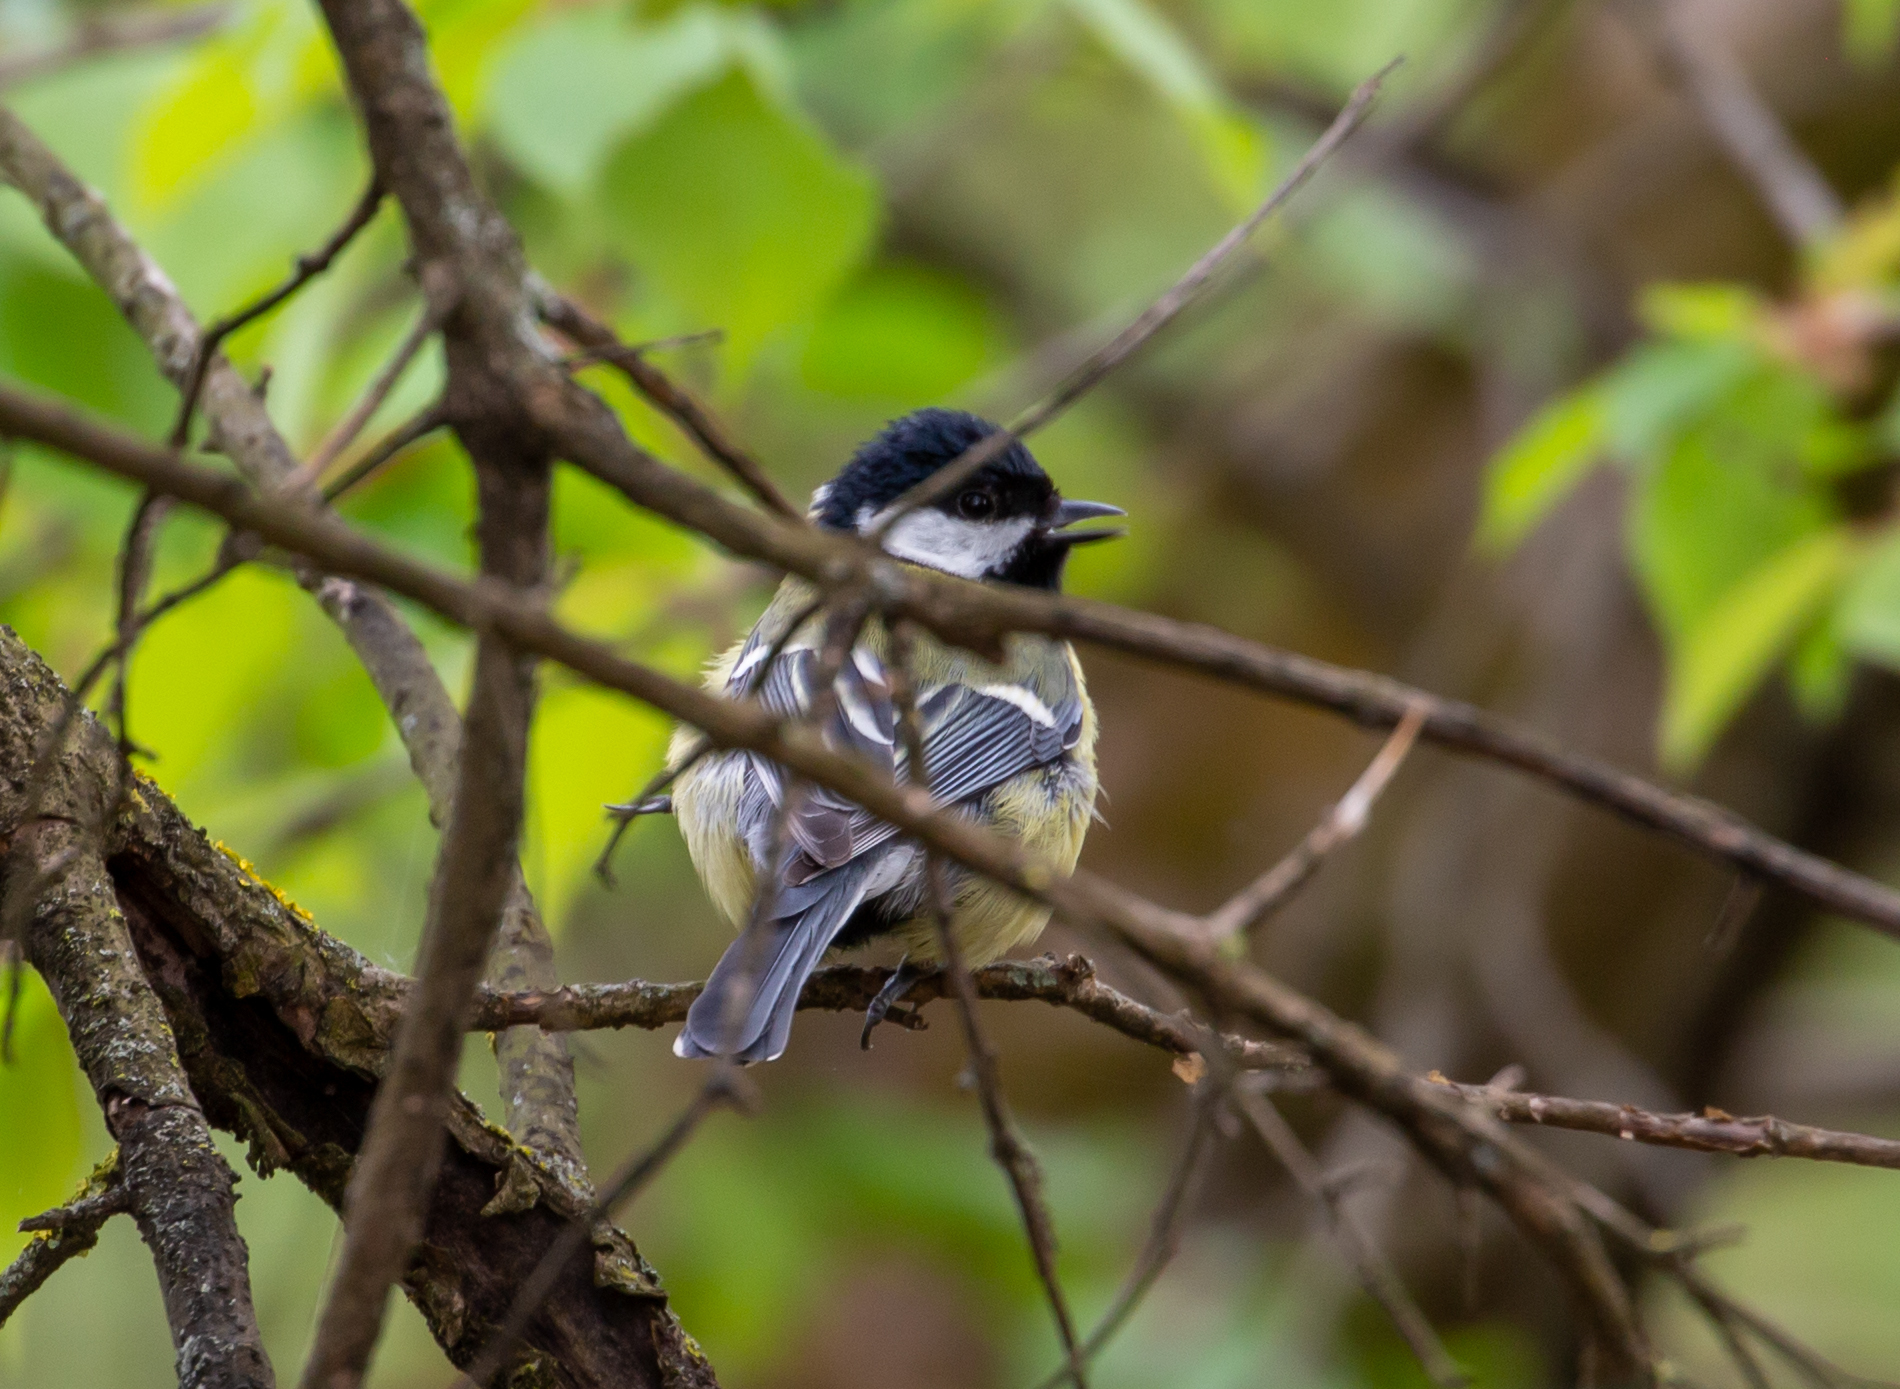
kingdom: Animalia
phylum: Chordata
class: Aves
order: Passeriformes
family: Paridae
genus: Parus
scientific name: Parus major
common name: Great tit
